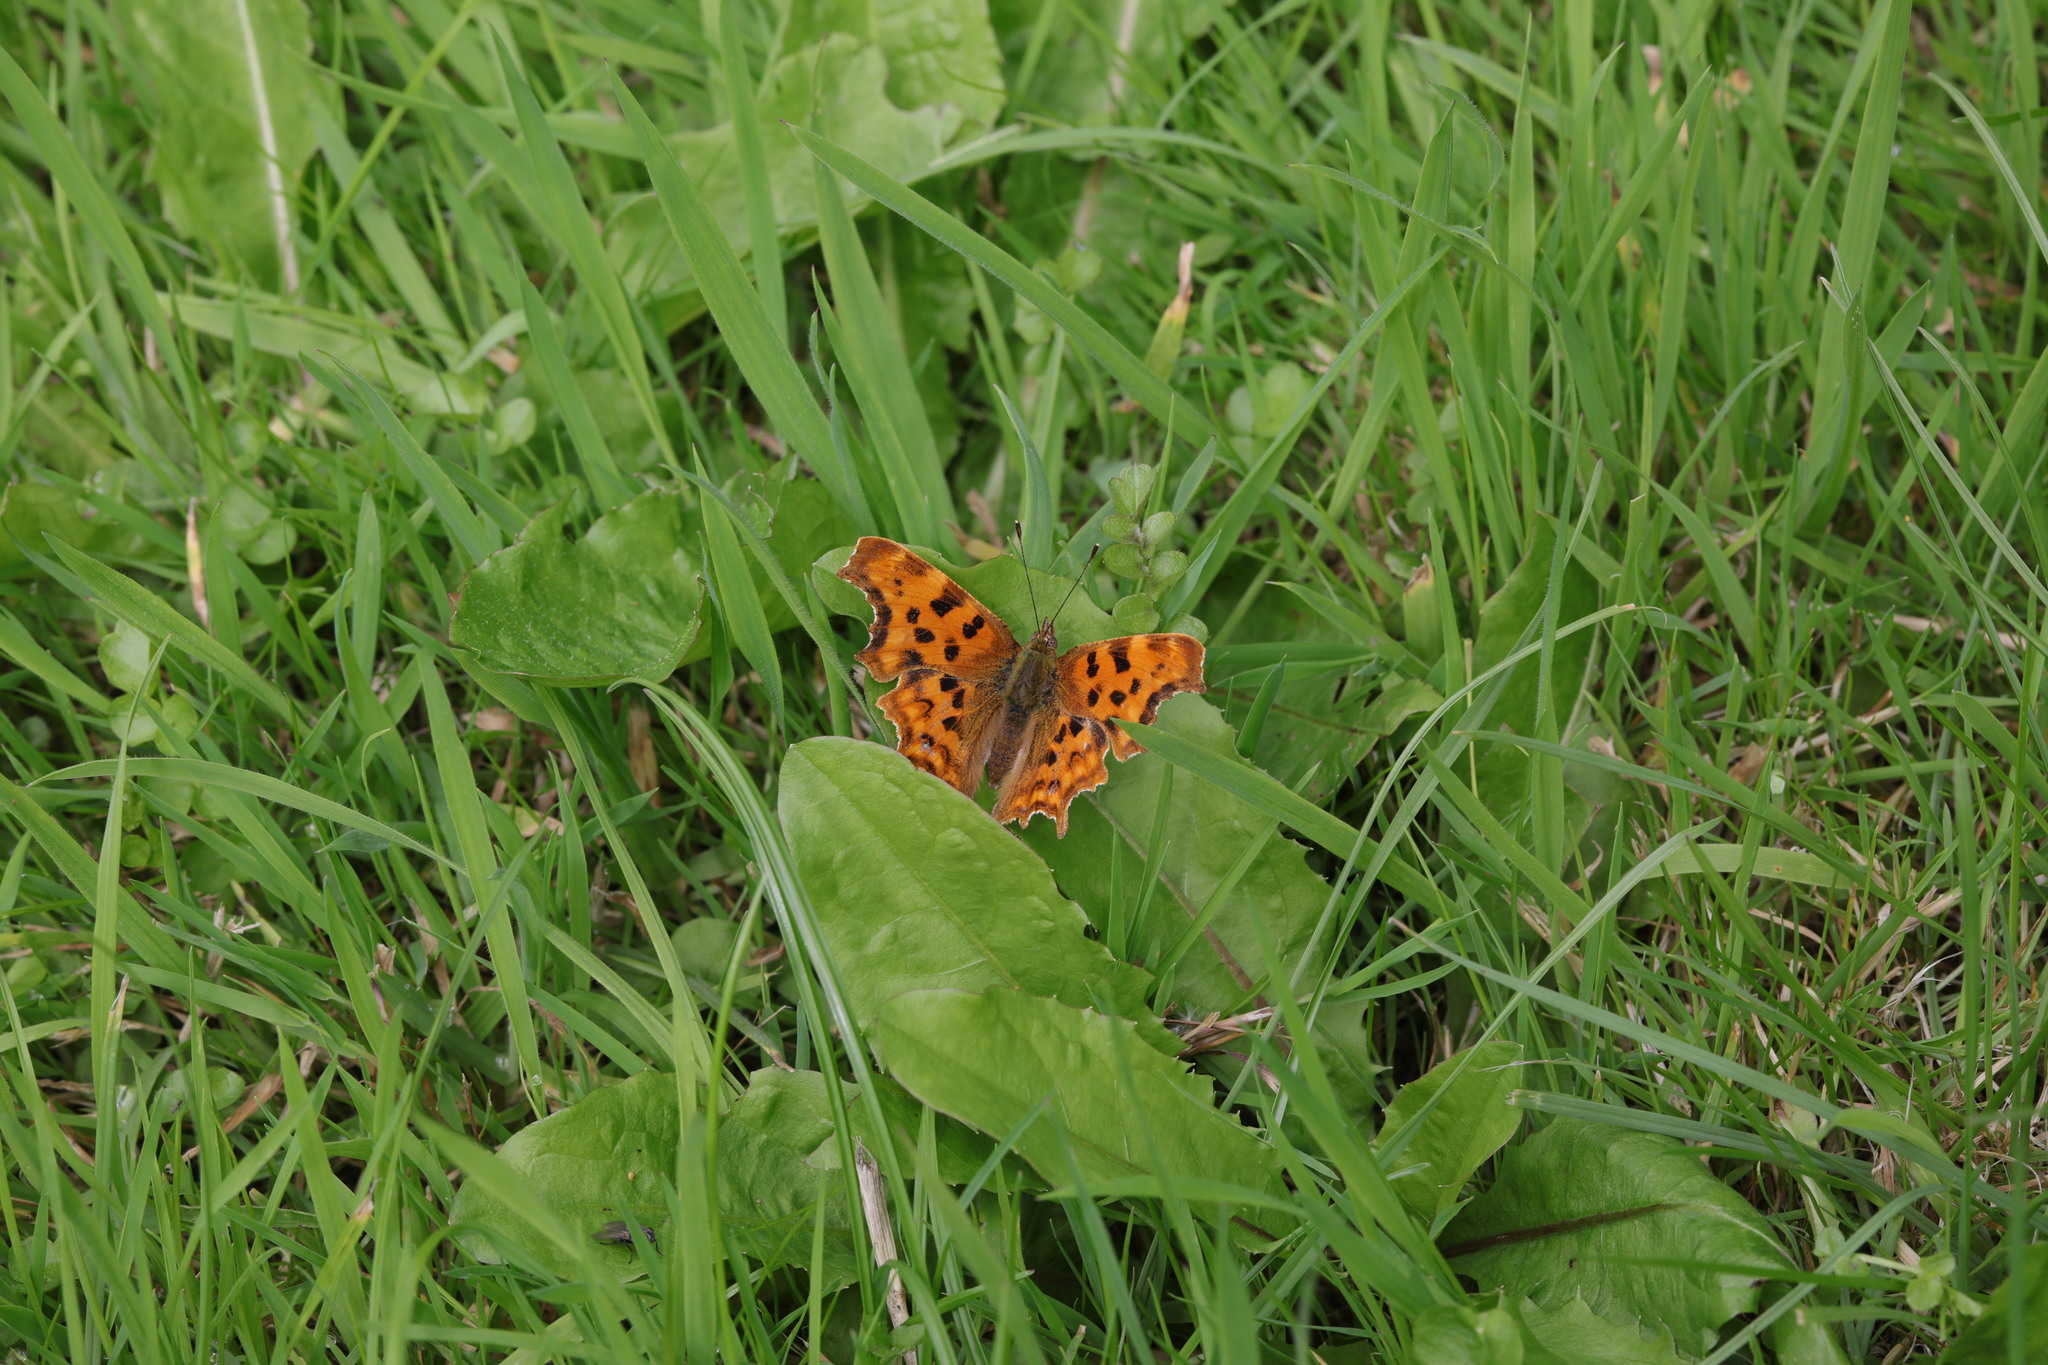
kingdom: Animalia
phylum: Arthropoda
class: Insecta
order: Lepidoptera
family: Nymphalidae
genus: Polygonia
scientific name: Polygonia c-album
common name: Comma
